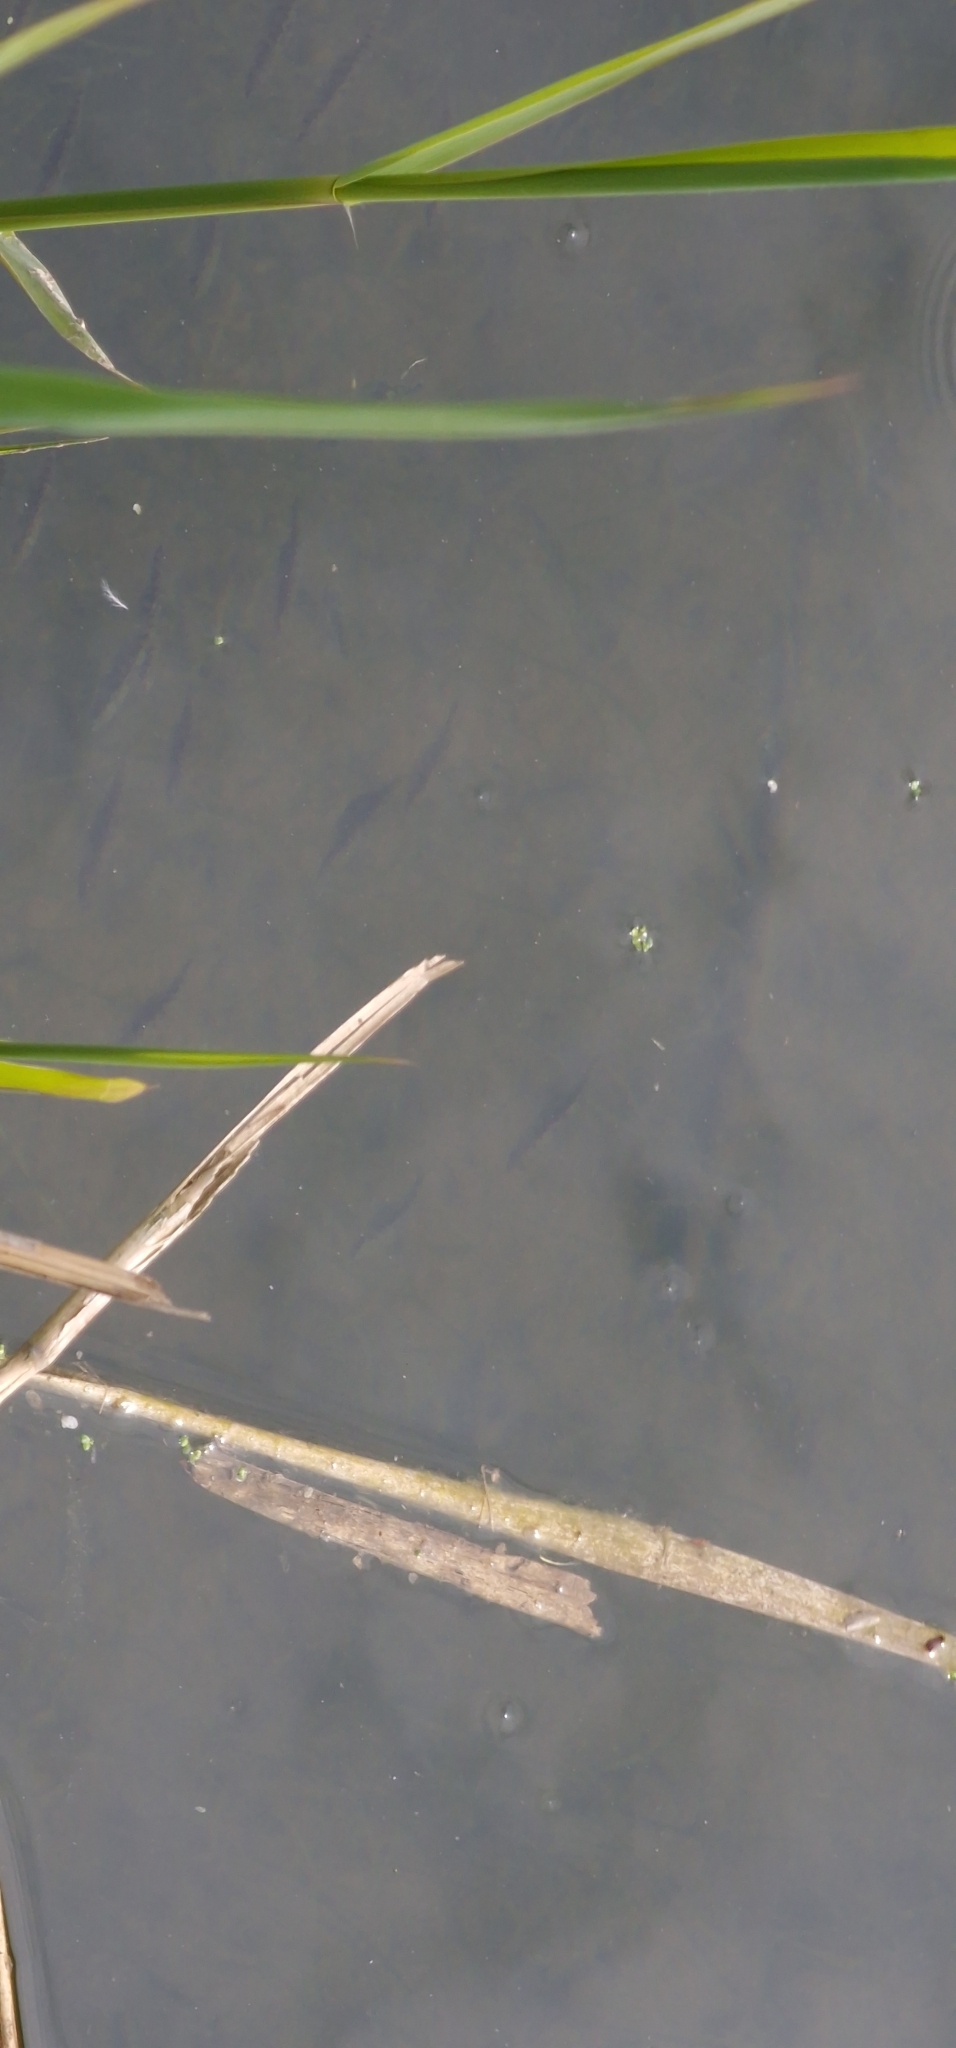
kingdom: Animalia
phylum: Chordata
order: Gasterosteiformes
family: Gasterosteidae
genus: Gasterosteus
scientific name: Gasterosteus aculeatus
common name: Three-spined stickleback
